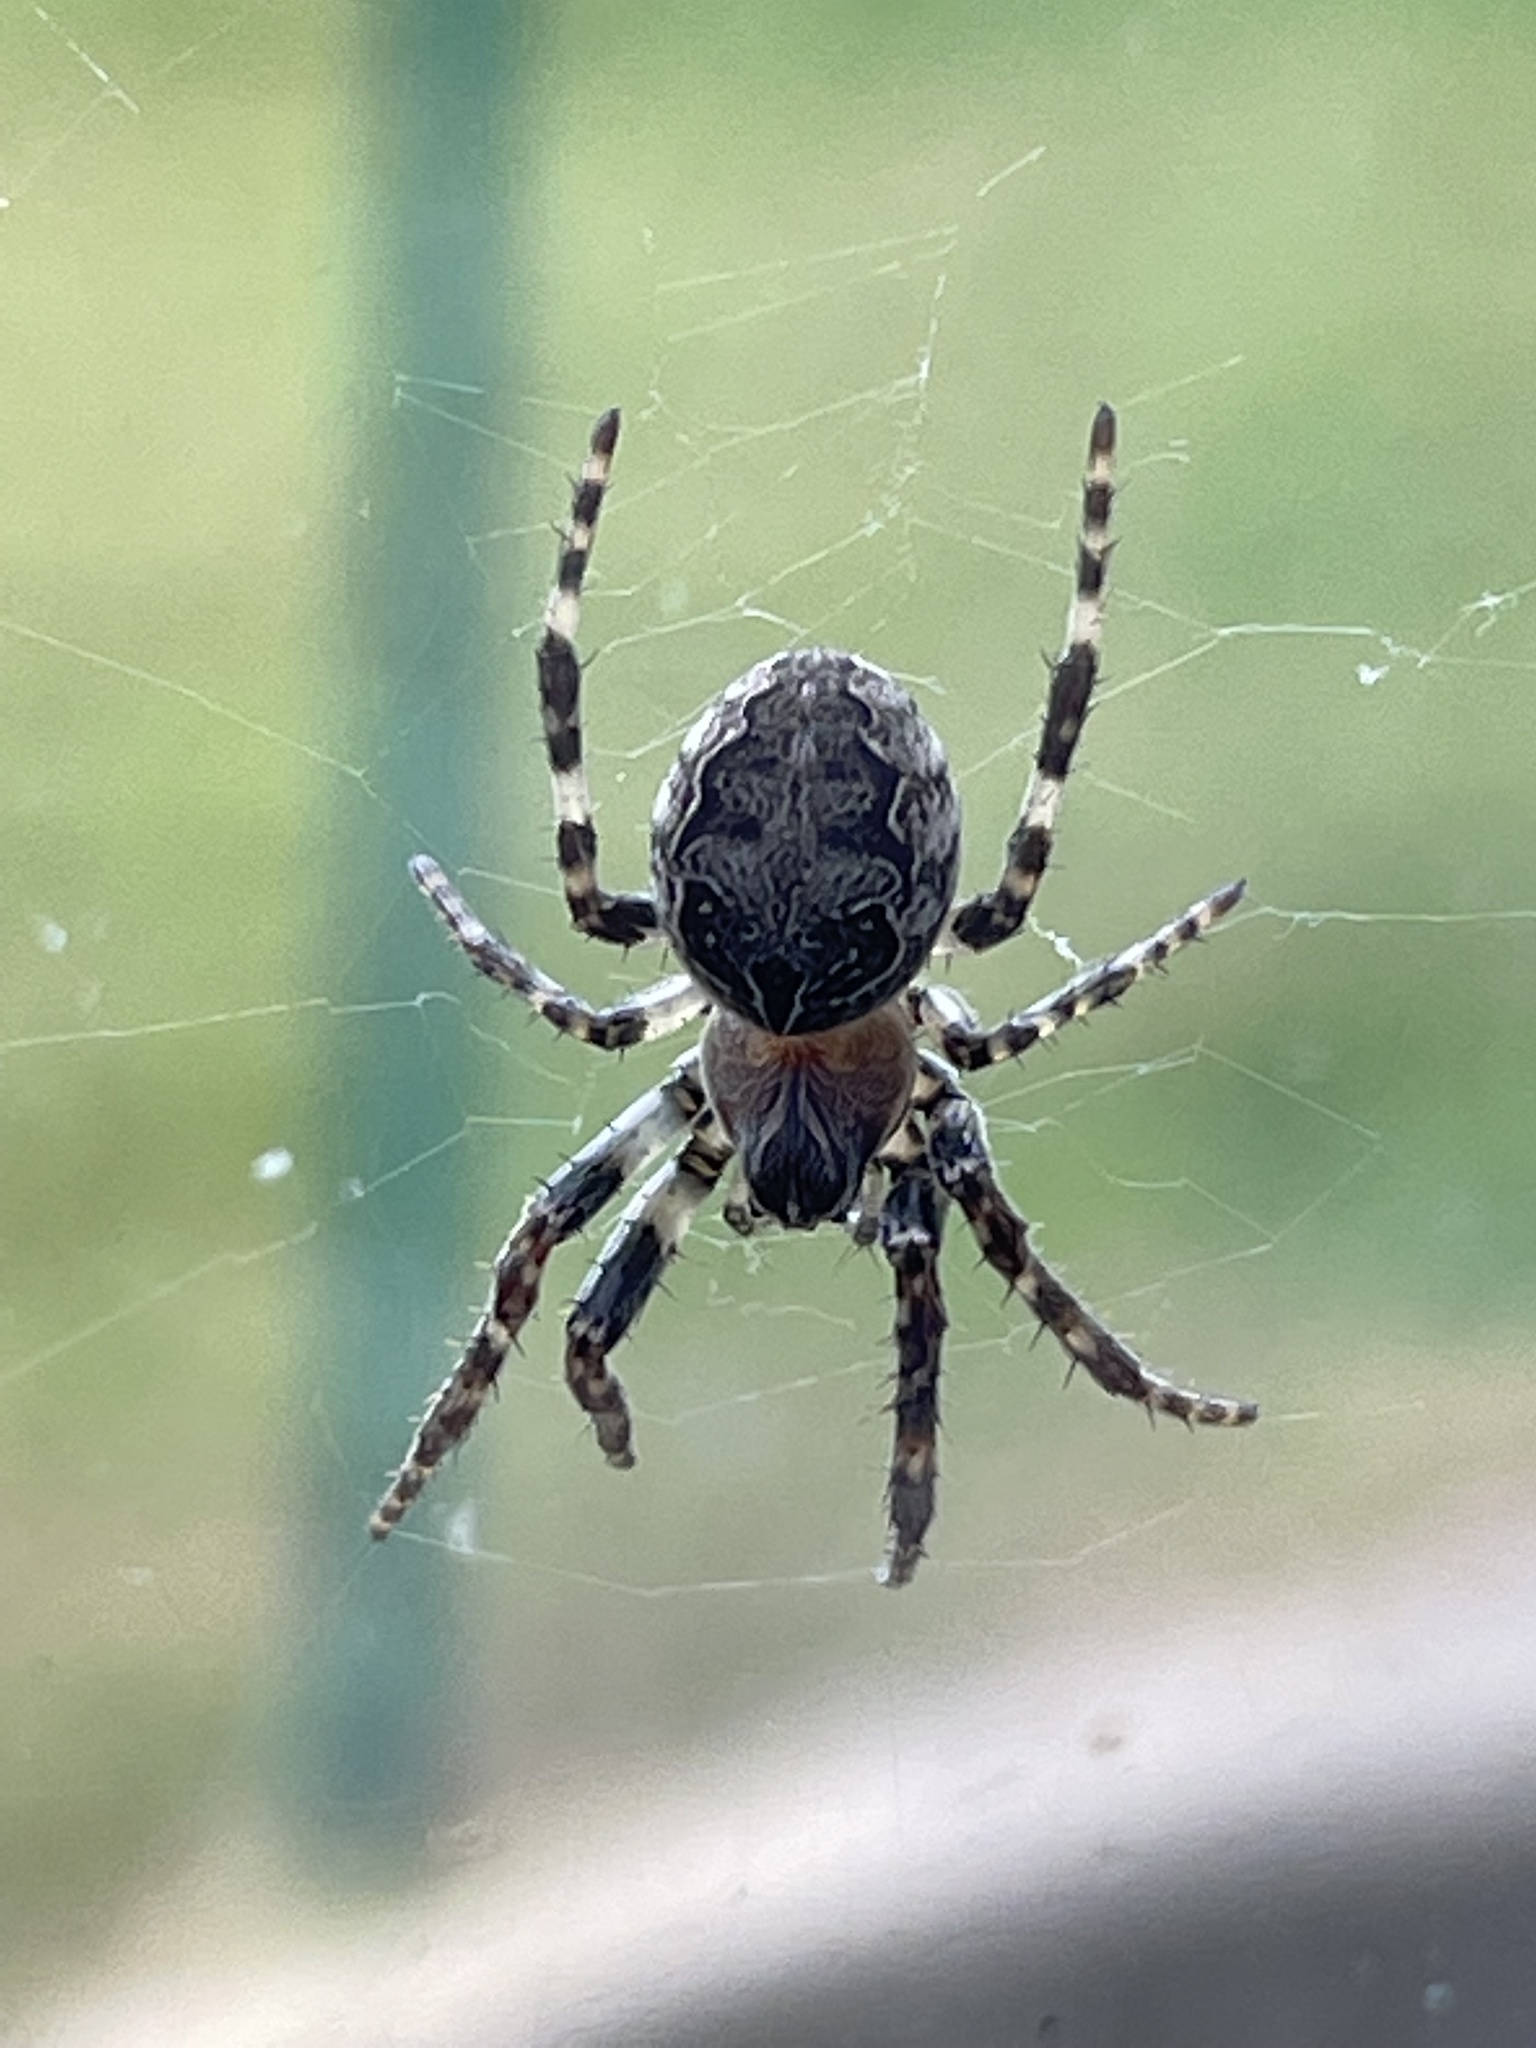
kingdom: Animalia
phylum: Arthropoda
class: Arachnida
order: Araneae
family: Araneidae
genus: Larinioides
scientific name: Larinioides sclopetarius
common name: Bridge orbweaver
